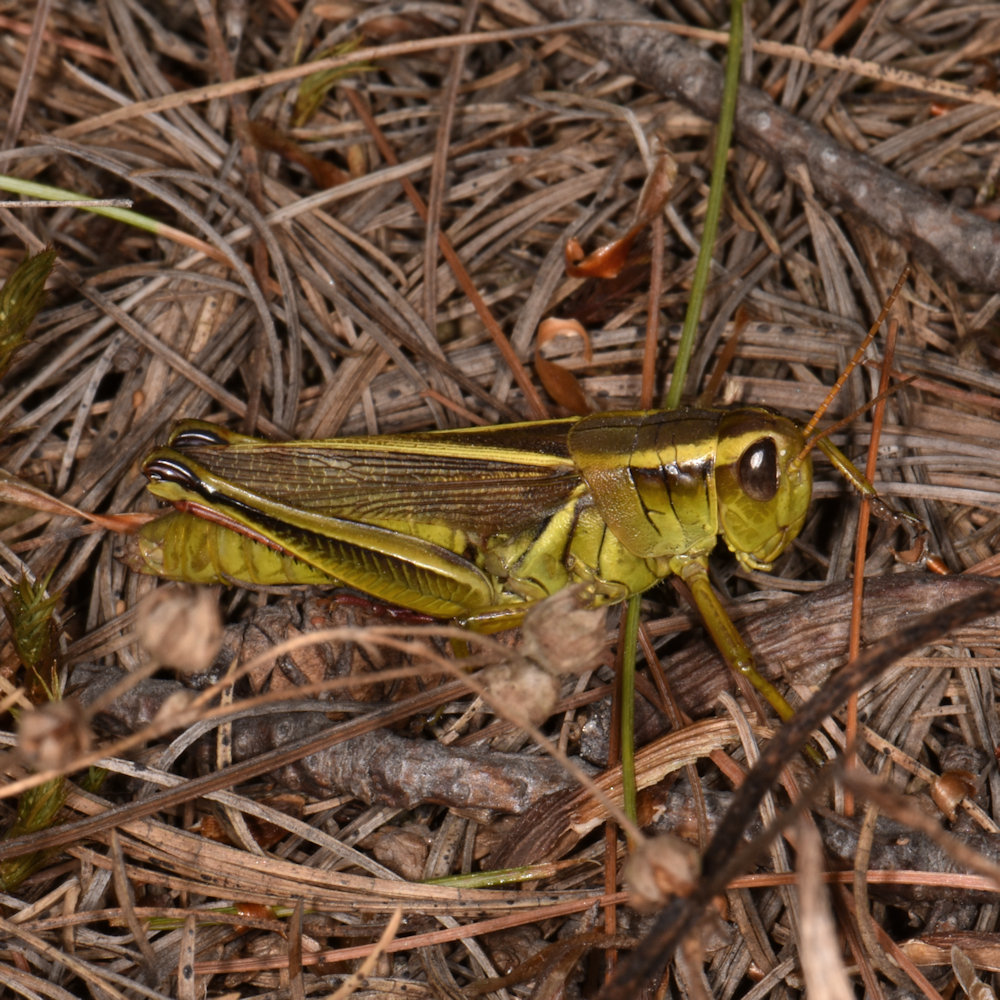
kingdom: Animalia
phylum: Arthropoda
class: Insecta
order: Orthoptera
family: Acrididae
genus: Melanoplus
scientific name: Melanoplus bivittatus
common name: Two-striped grasshopper
